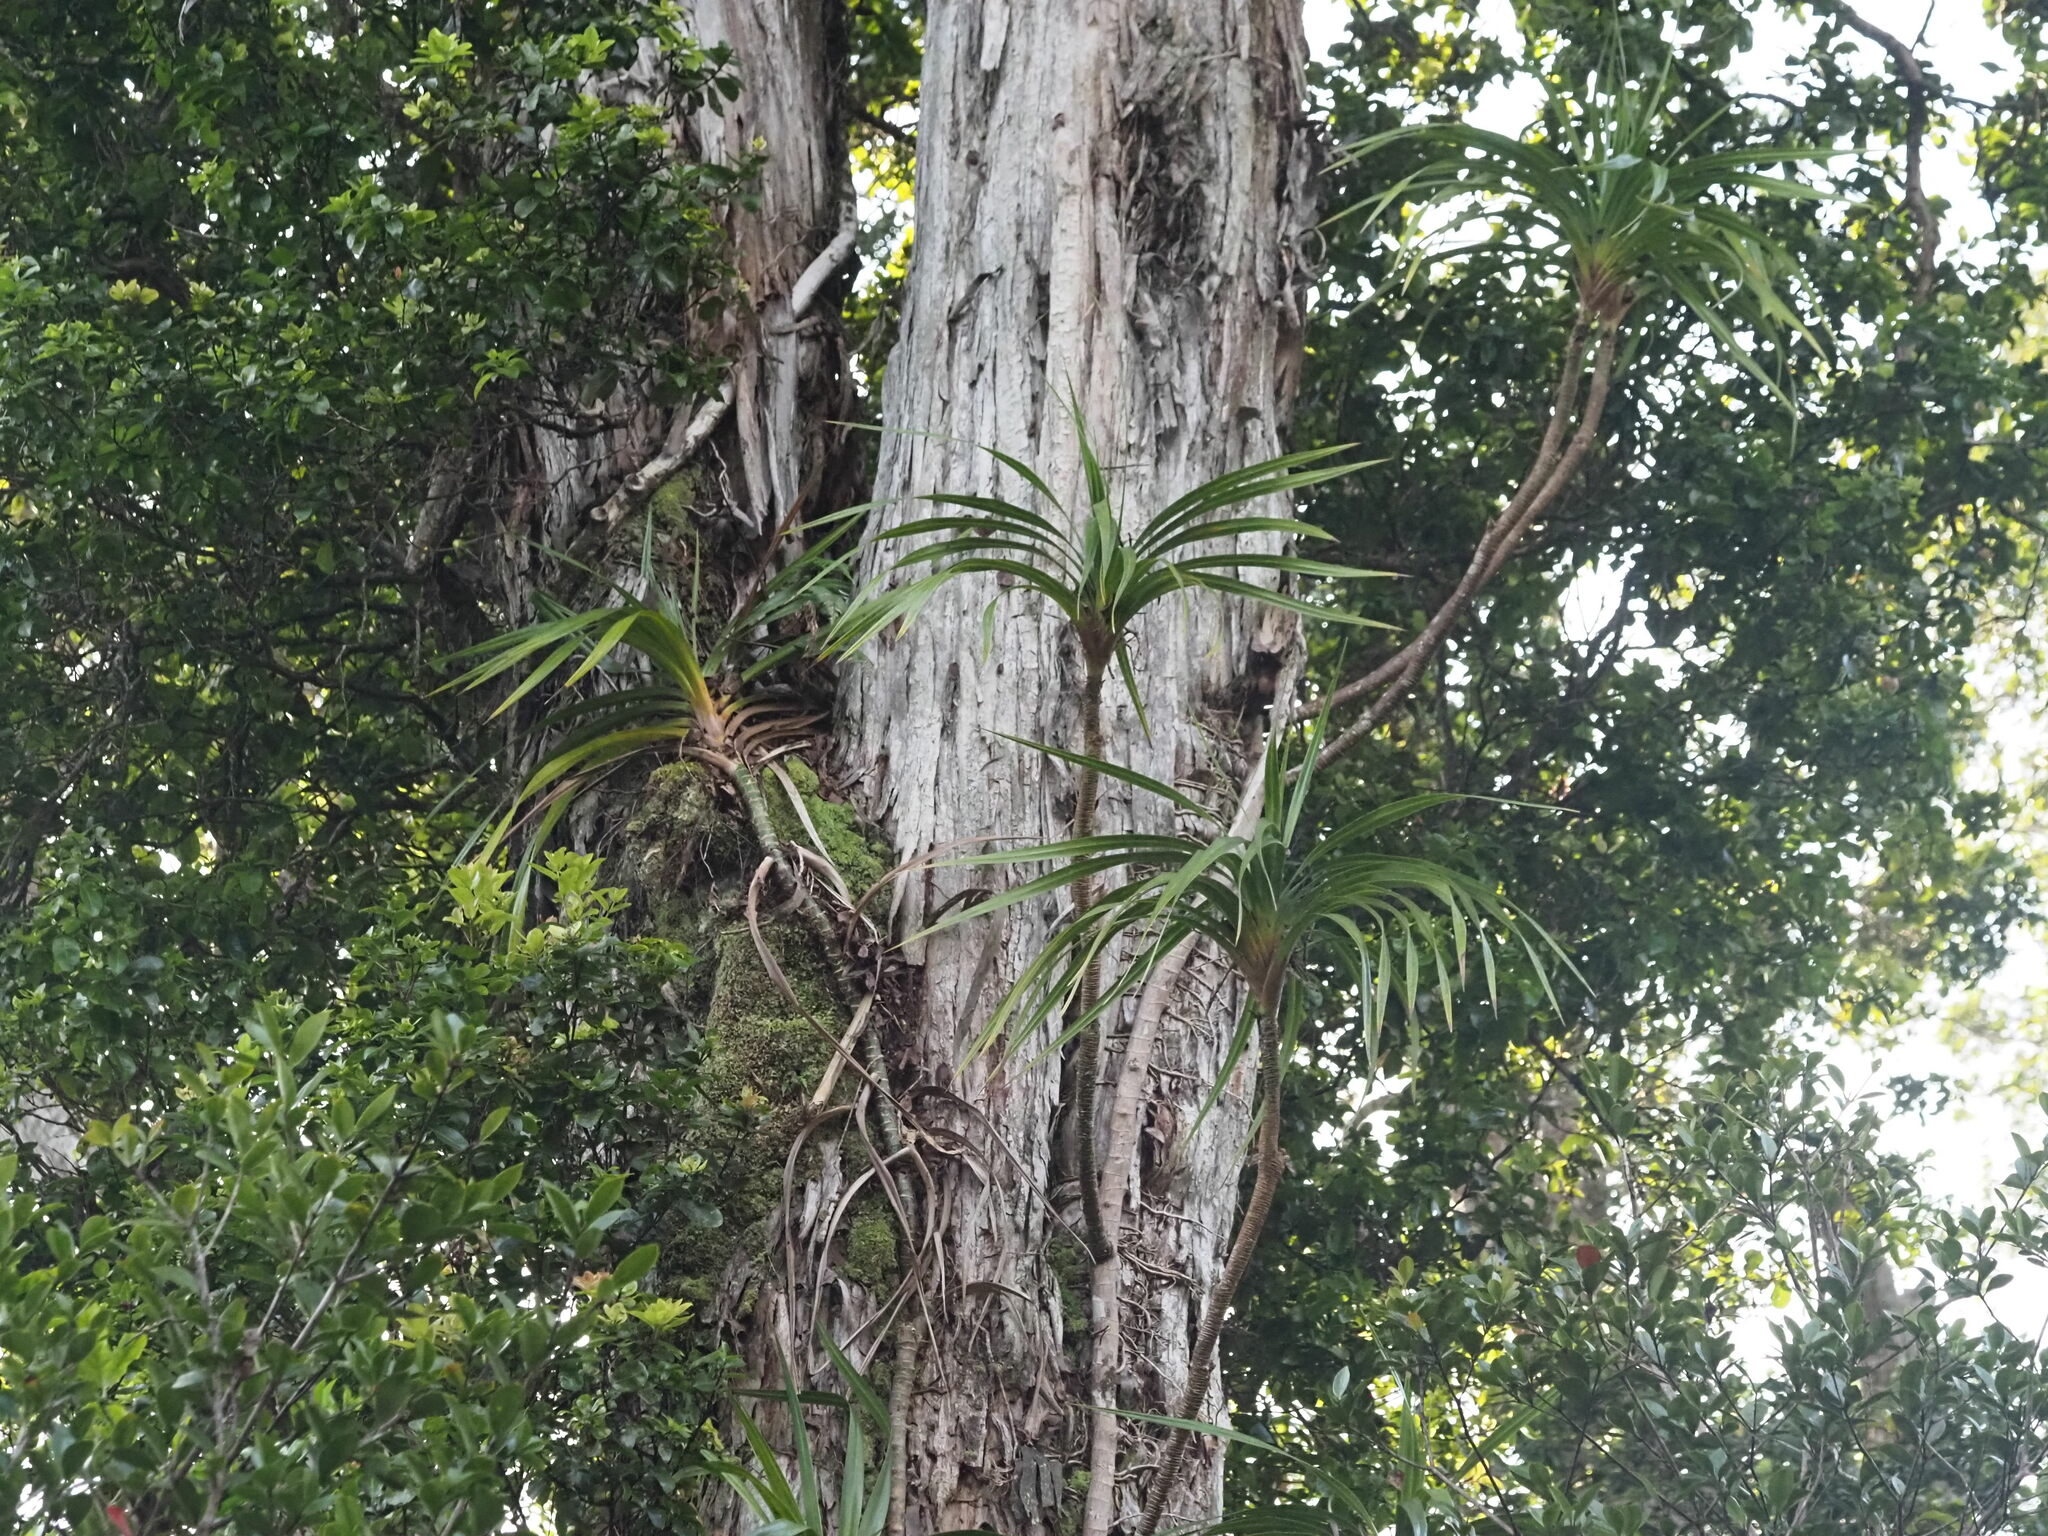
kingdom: Plantae
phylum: Tracheophyta
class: Liliopsida
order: Pandanales
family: Pandanaceae
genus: Freycinetia
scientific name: Freycinetia arborea
